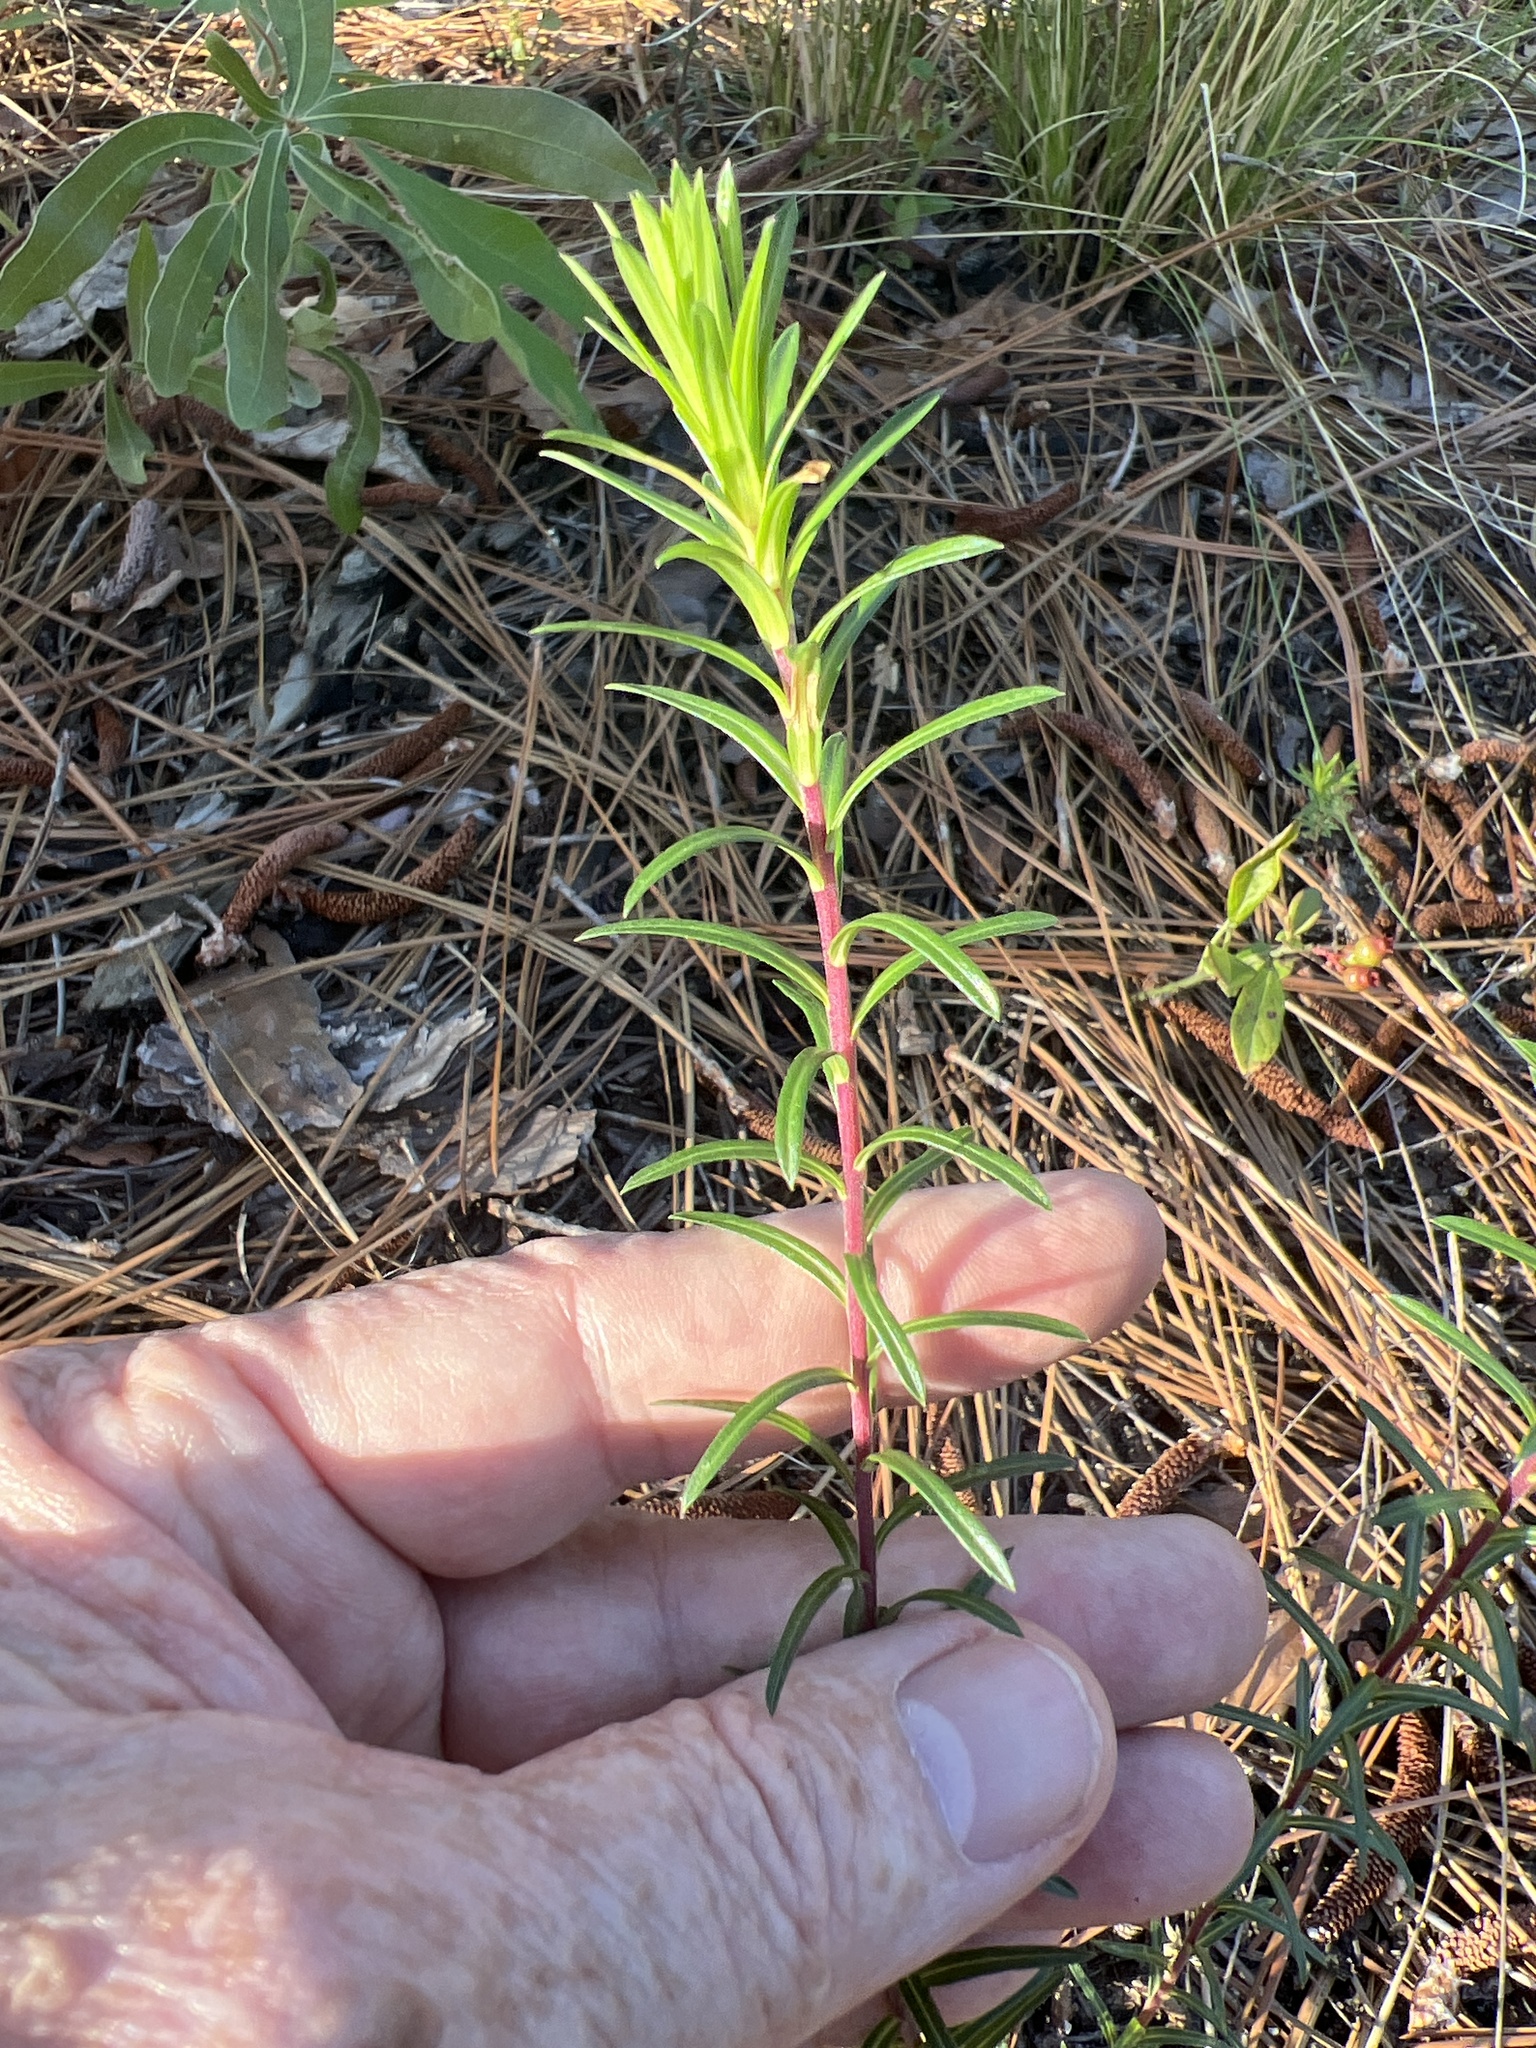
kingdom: Plantae
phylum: Tracheophyta
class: Magnoliopsida
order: Asterales
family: Asteraceae
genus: Ionactis
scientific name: Ionactis linariifolia
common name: Flax-leaf aster
